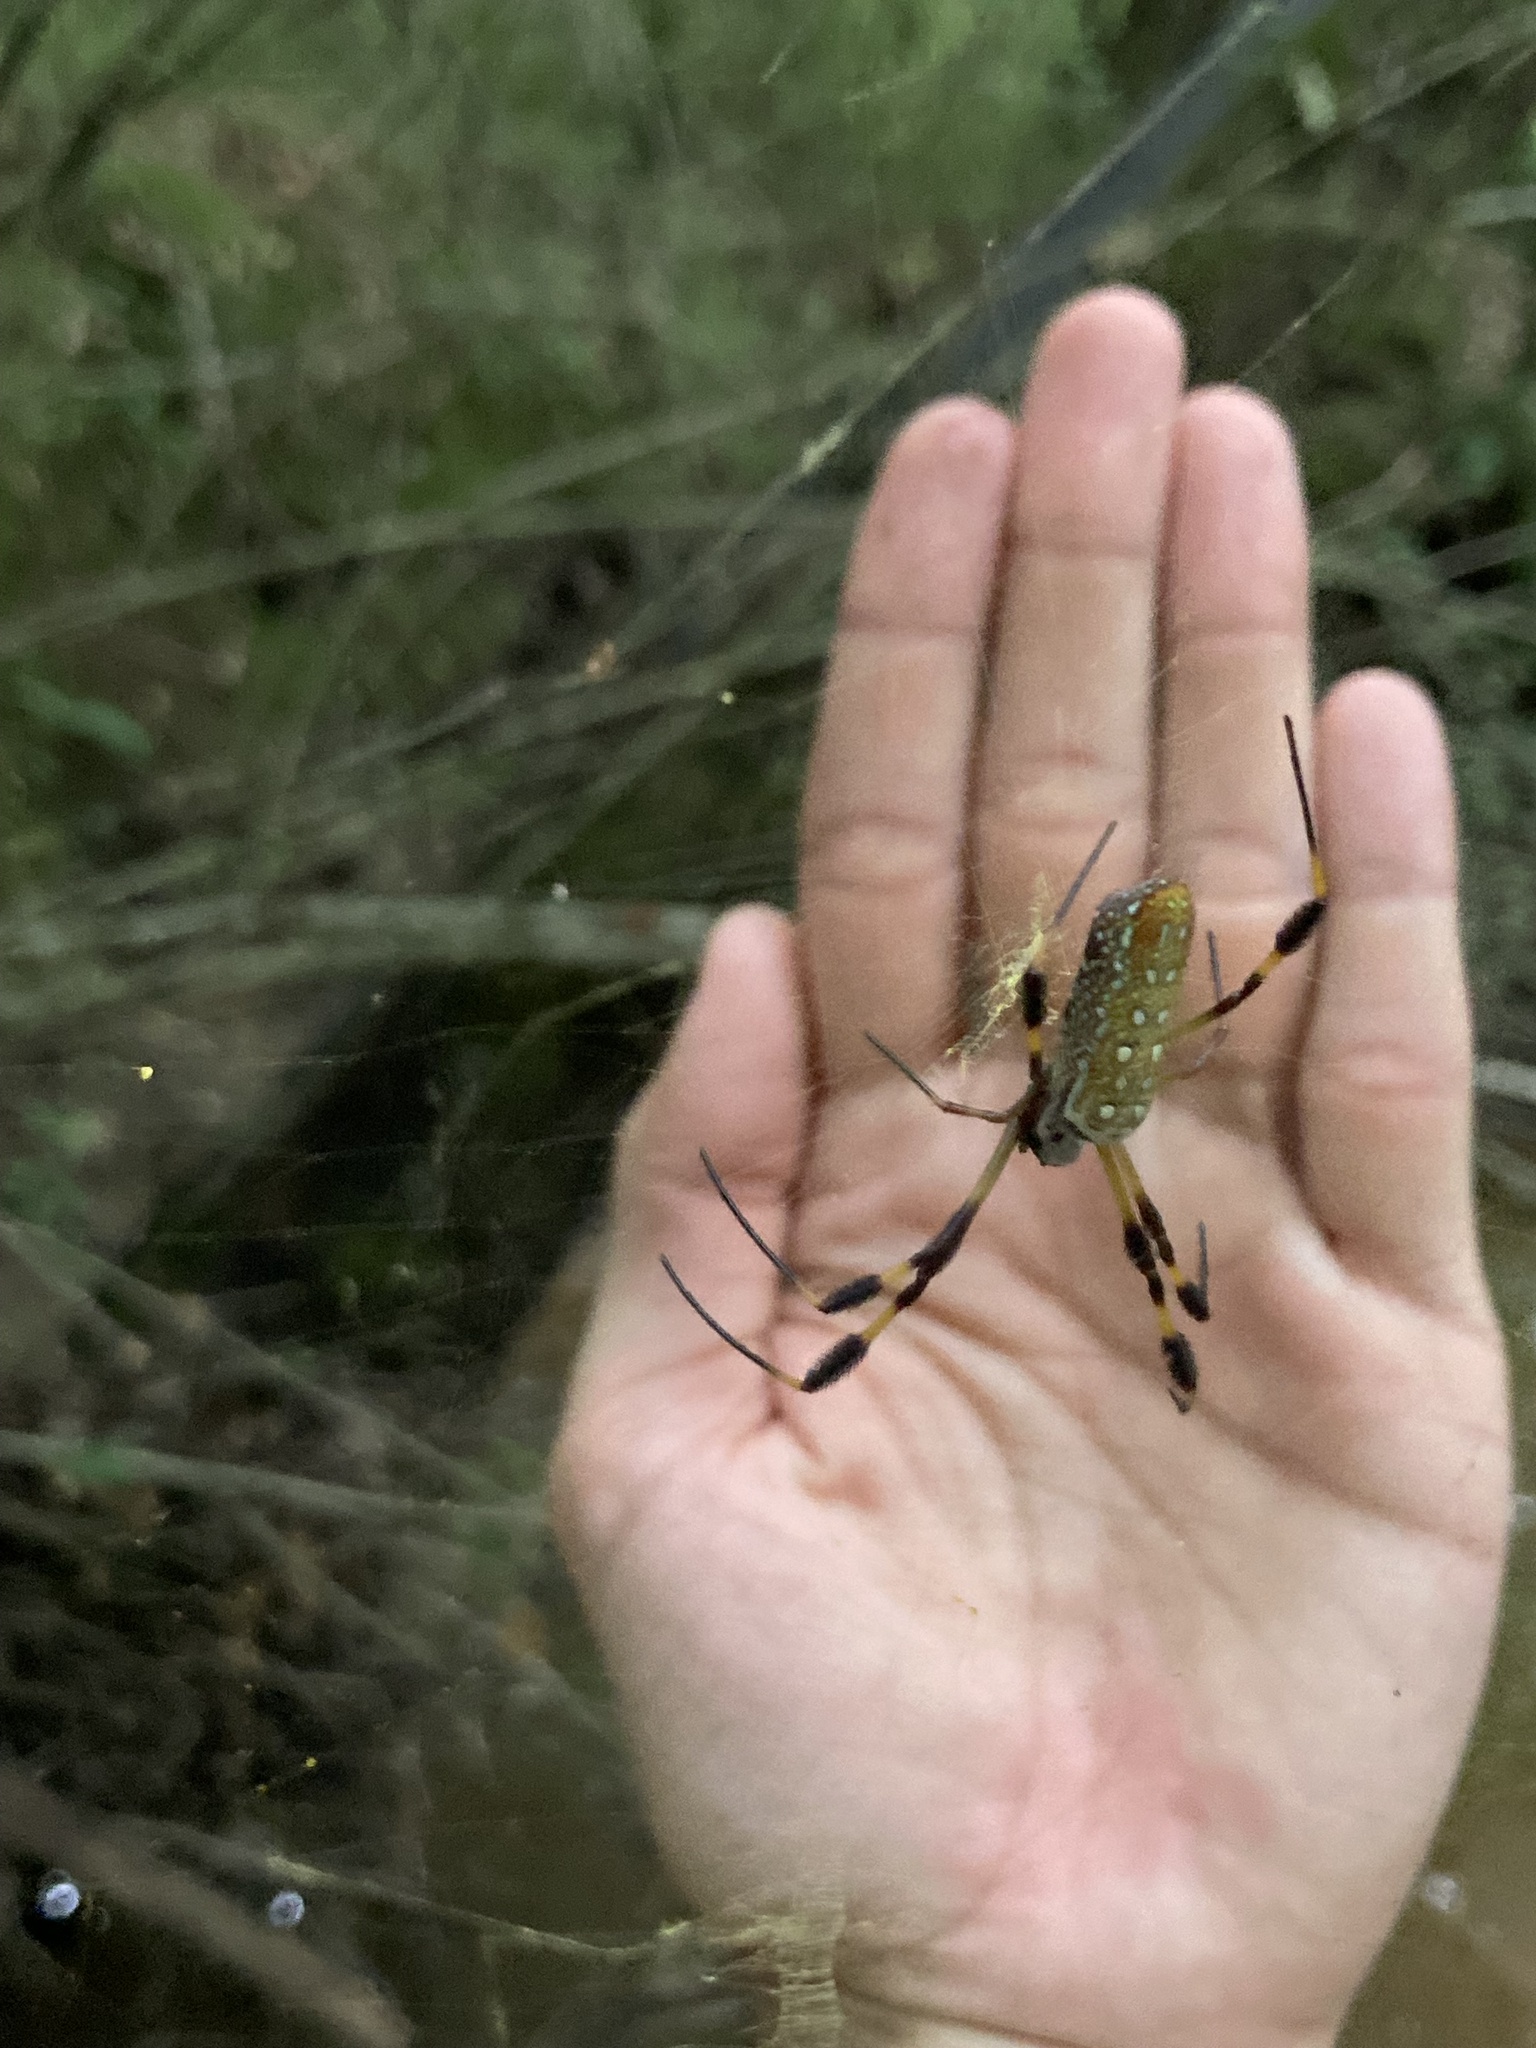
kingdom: Animalia
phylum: Arthropoda
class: Arachnida
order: Araneae
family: Araneidae
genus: Trichonephila
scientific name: Trichonephila clavipes
